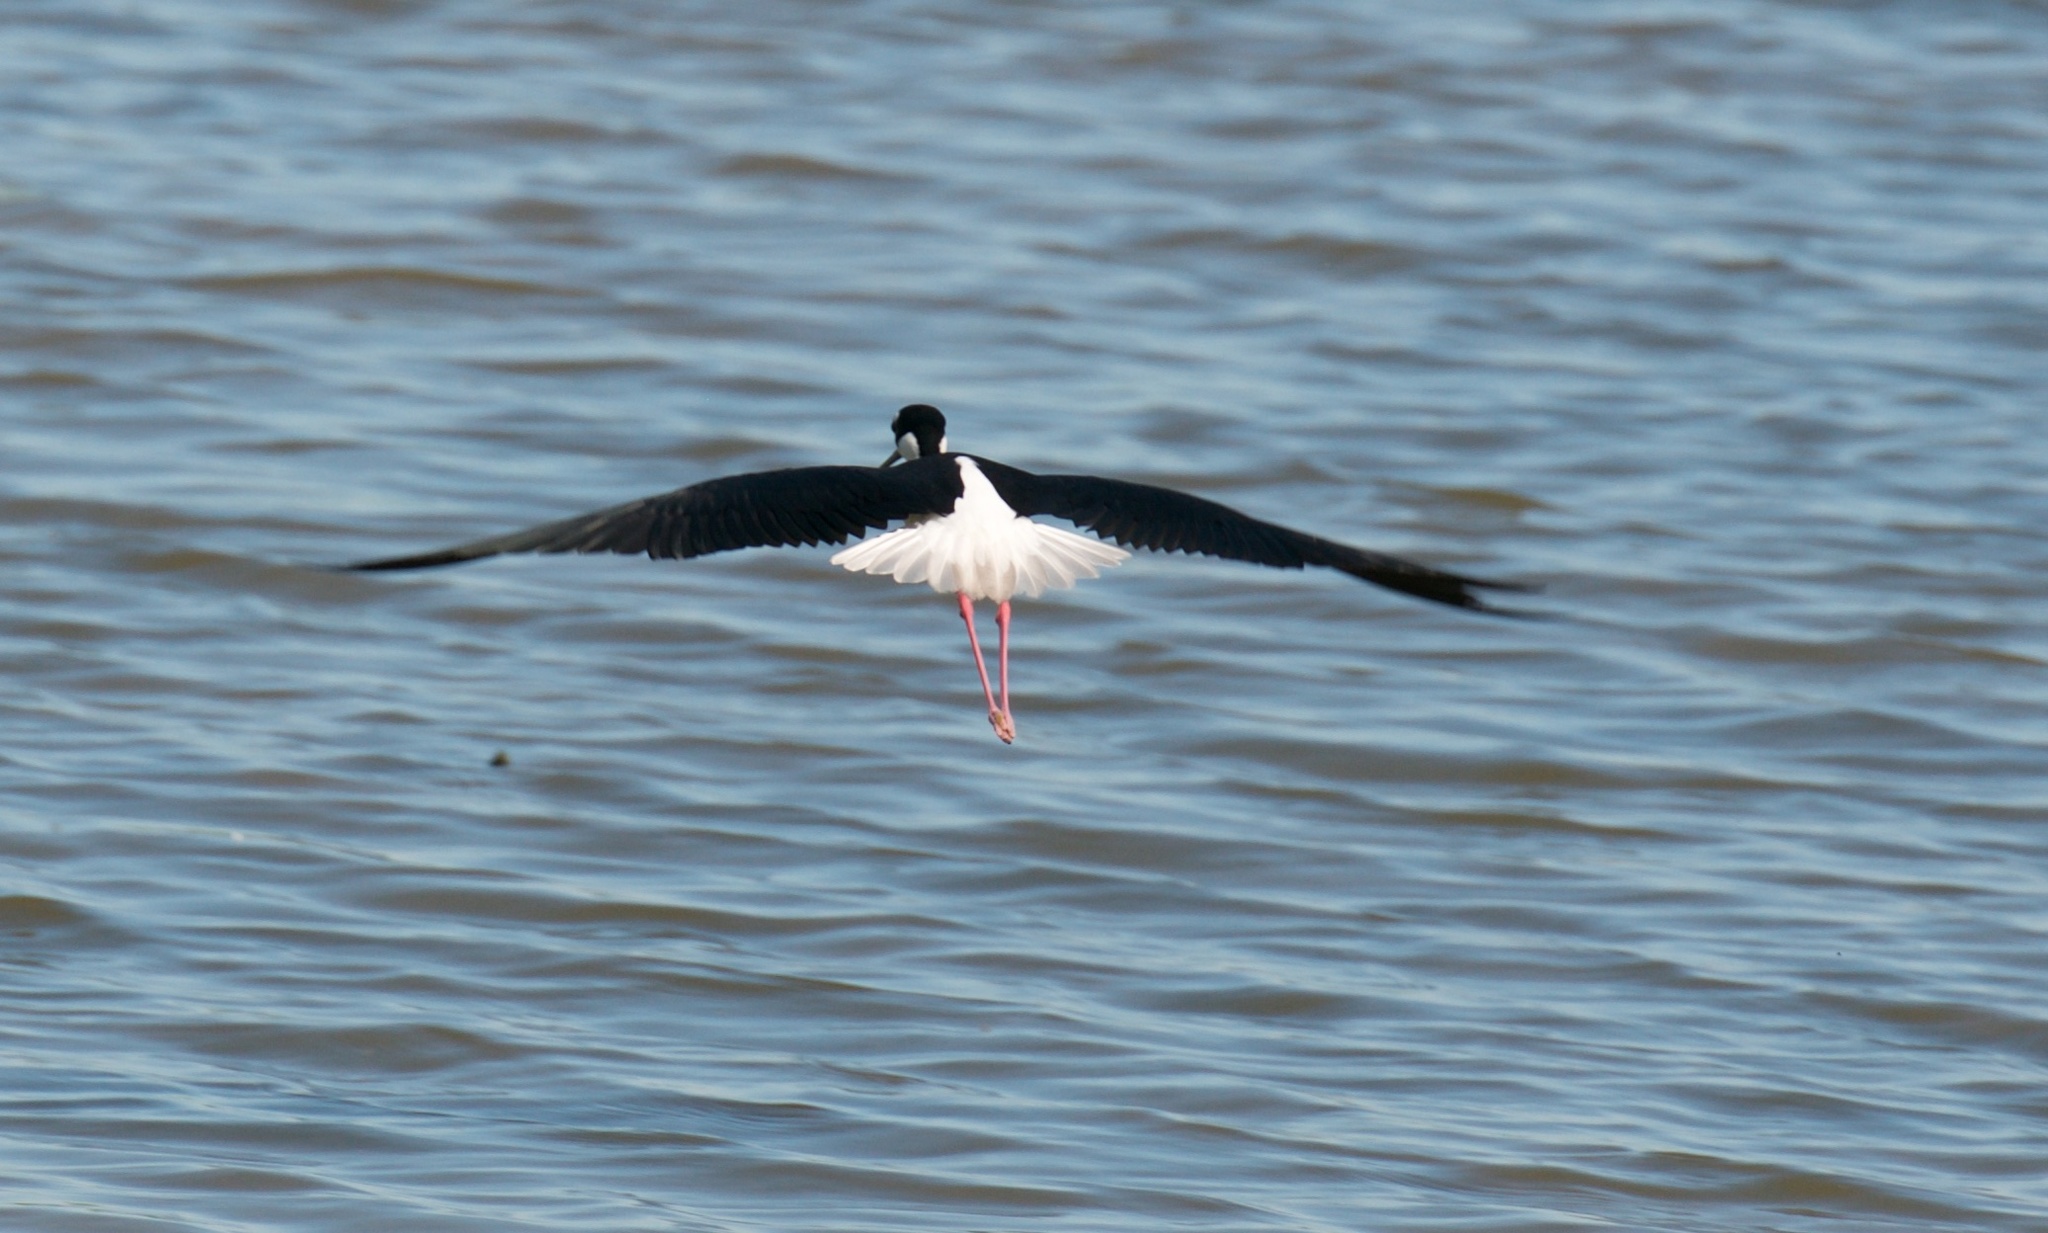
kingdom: Animalia
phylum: Chordata
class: Aves
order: Charadriiformes
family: Recurvirostridae
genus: Himantopus
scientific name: Himantopus mexicanus
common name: Black-necked stilt
